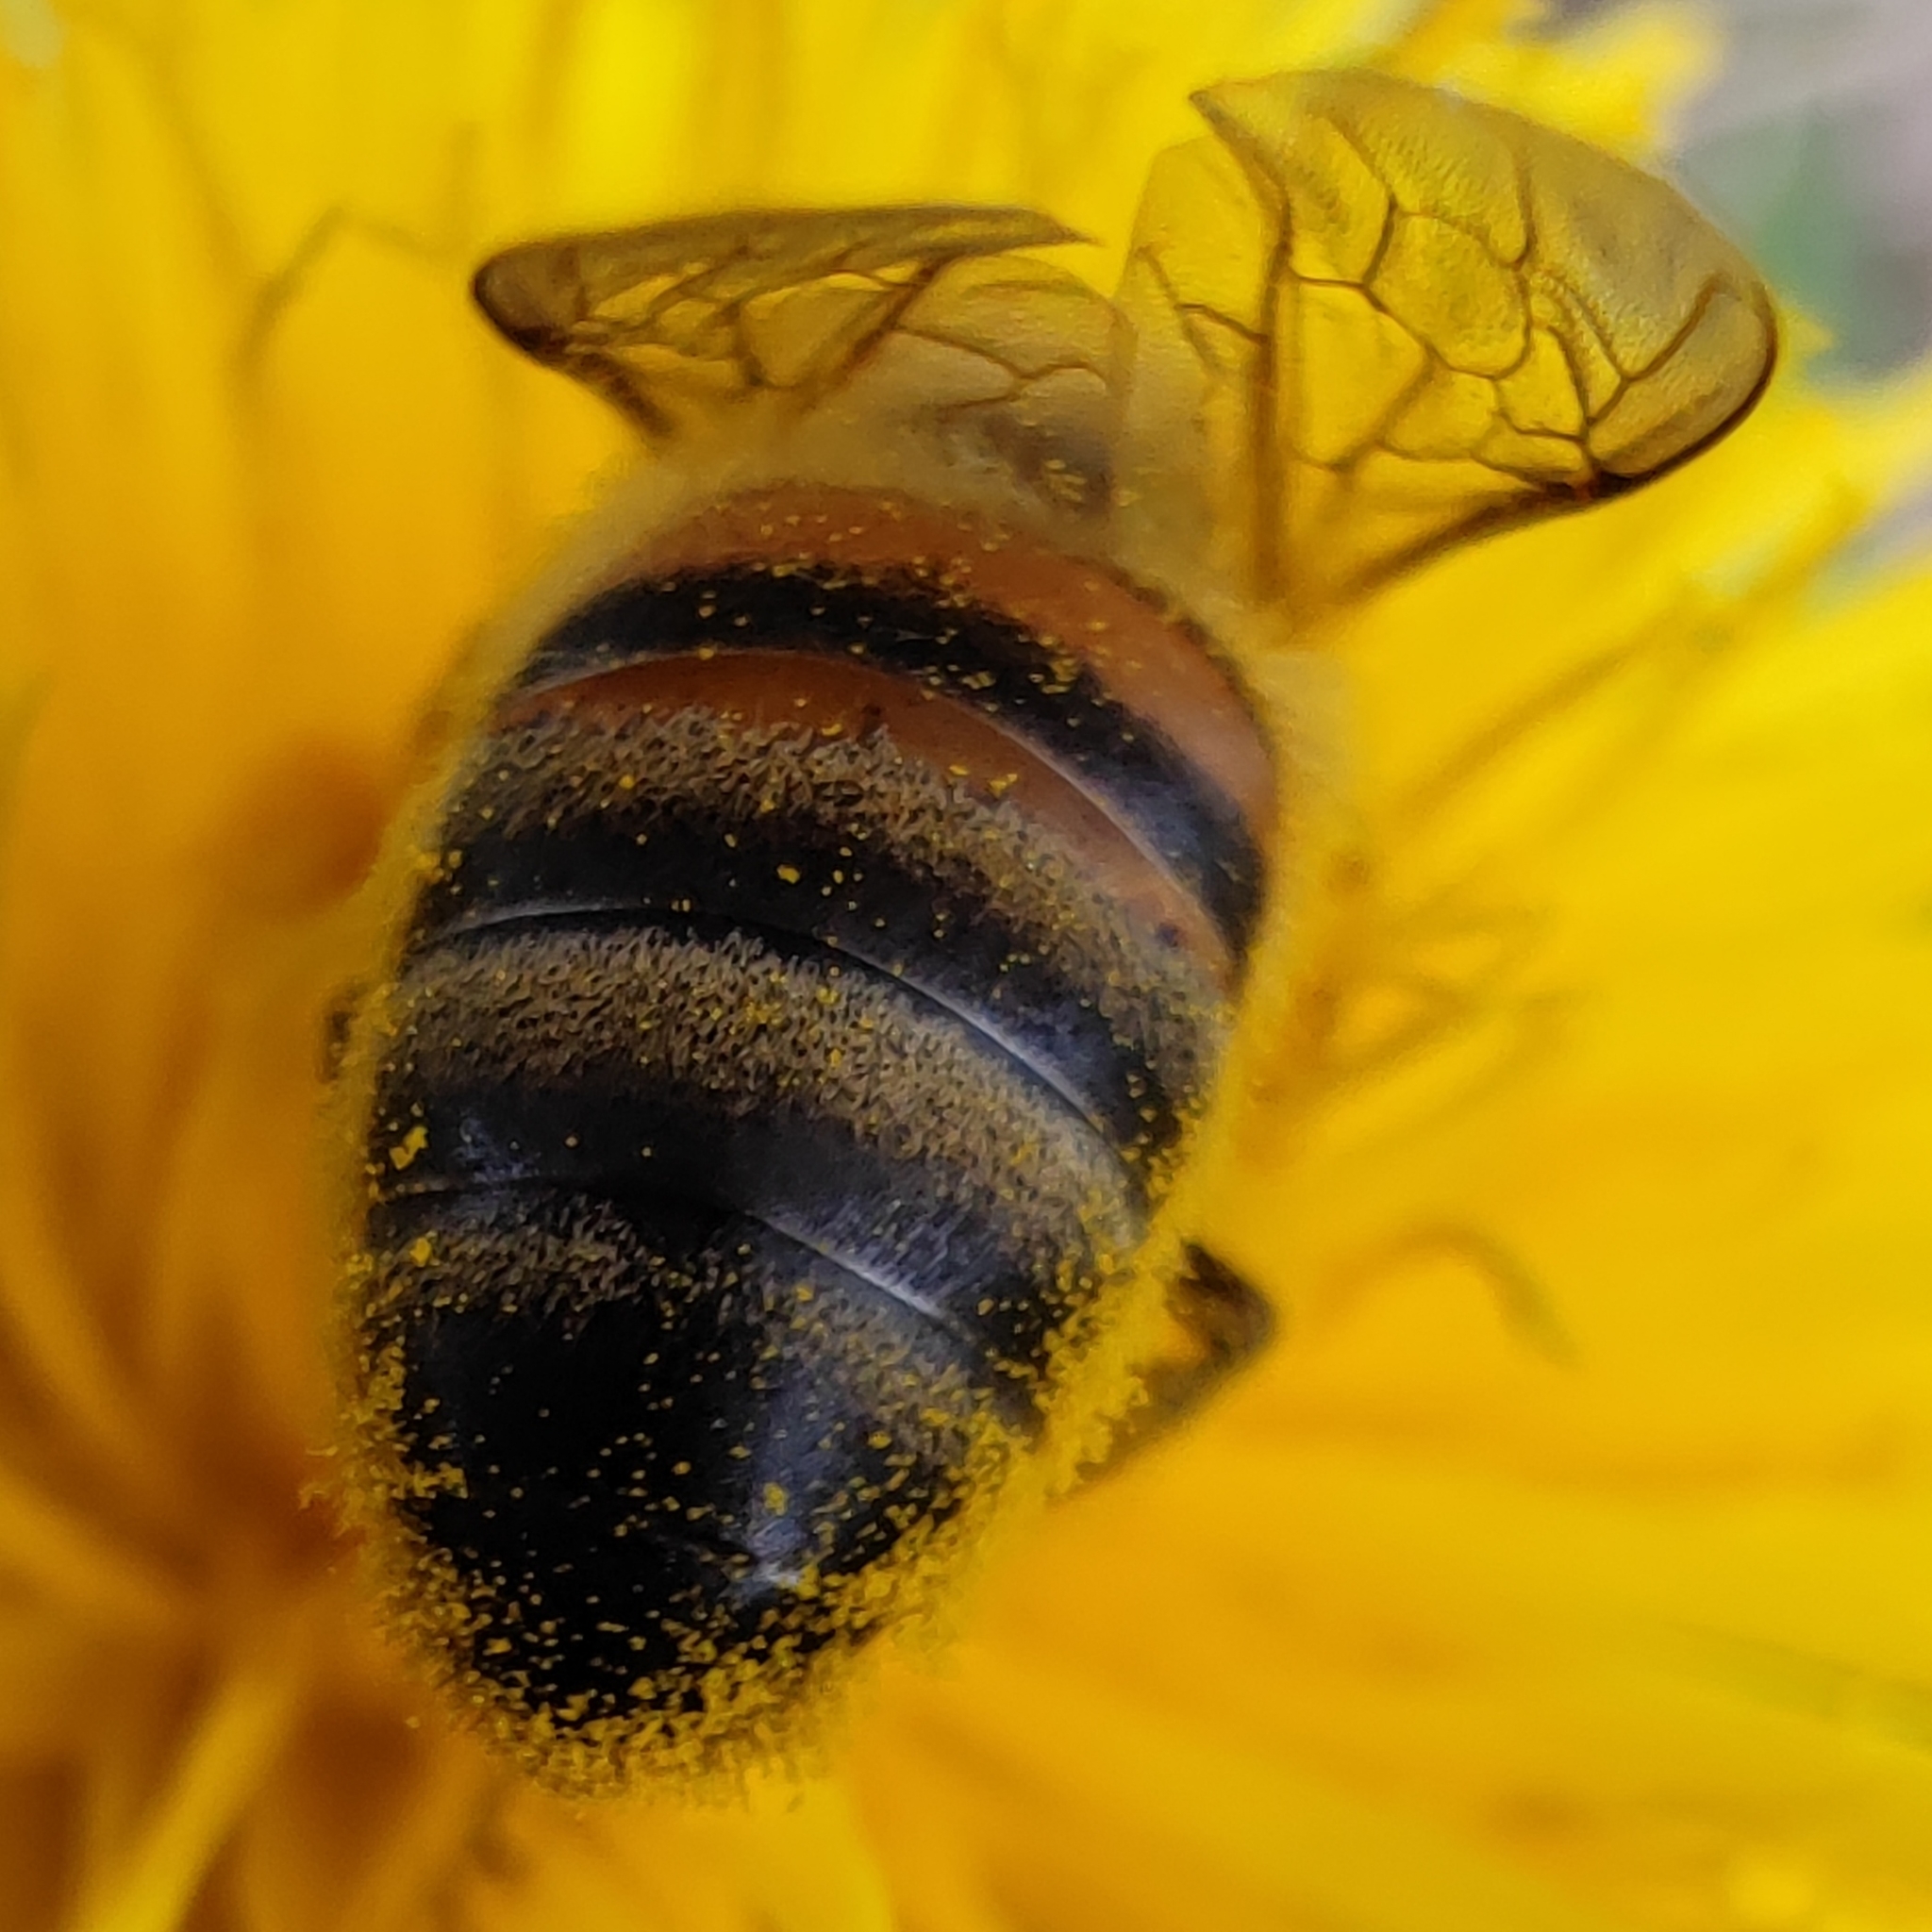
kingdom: Animalia
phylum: Arthropoda
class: Insecta
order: Hymenoptera
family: Apidae
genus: Apis
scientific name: Apis mellifera
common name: Honey bee
